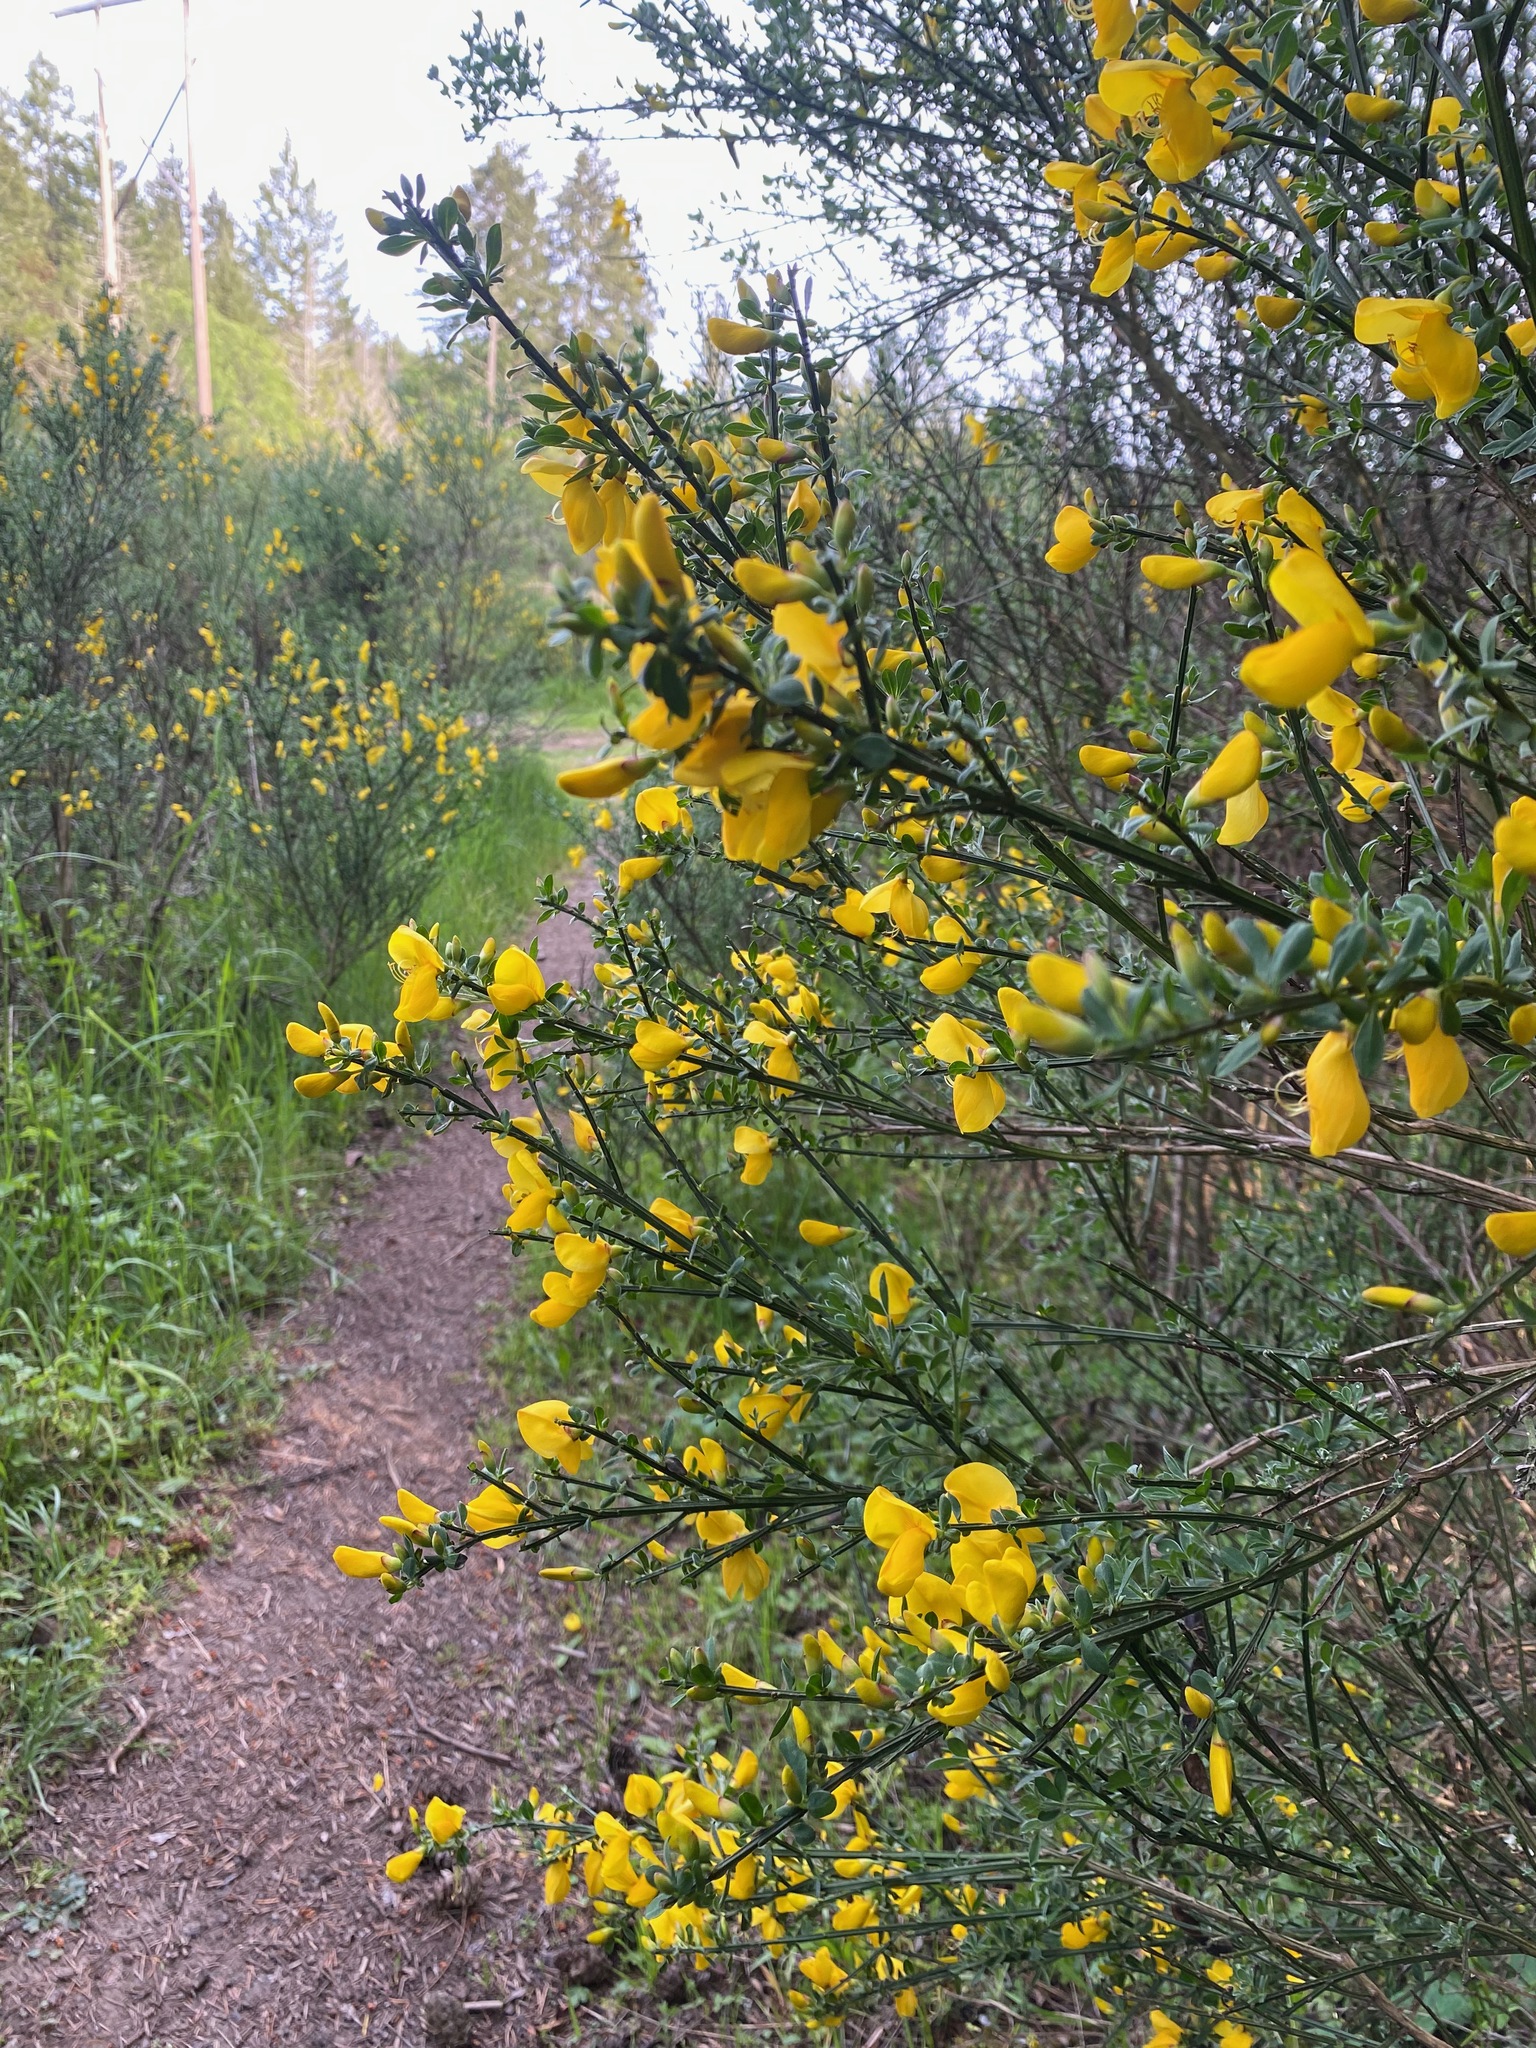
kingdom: Plantae
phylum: Tracheophyta
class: Magnoliopsida
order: Fabales
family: Fabaceae
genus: Cytisus
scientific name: Cytisus scoparius
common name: Scotch broom
